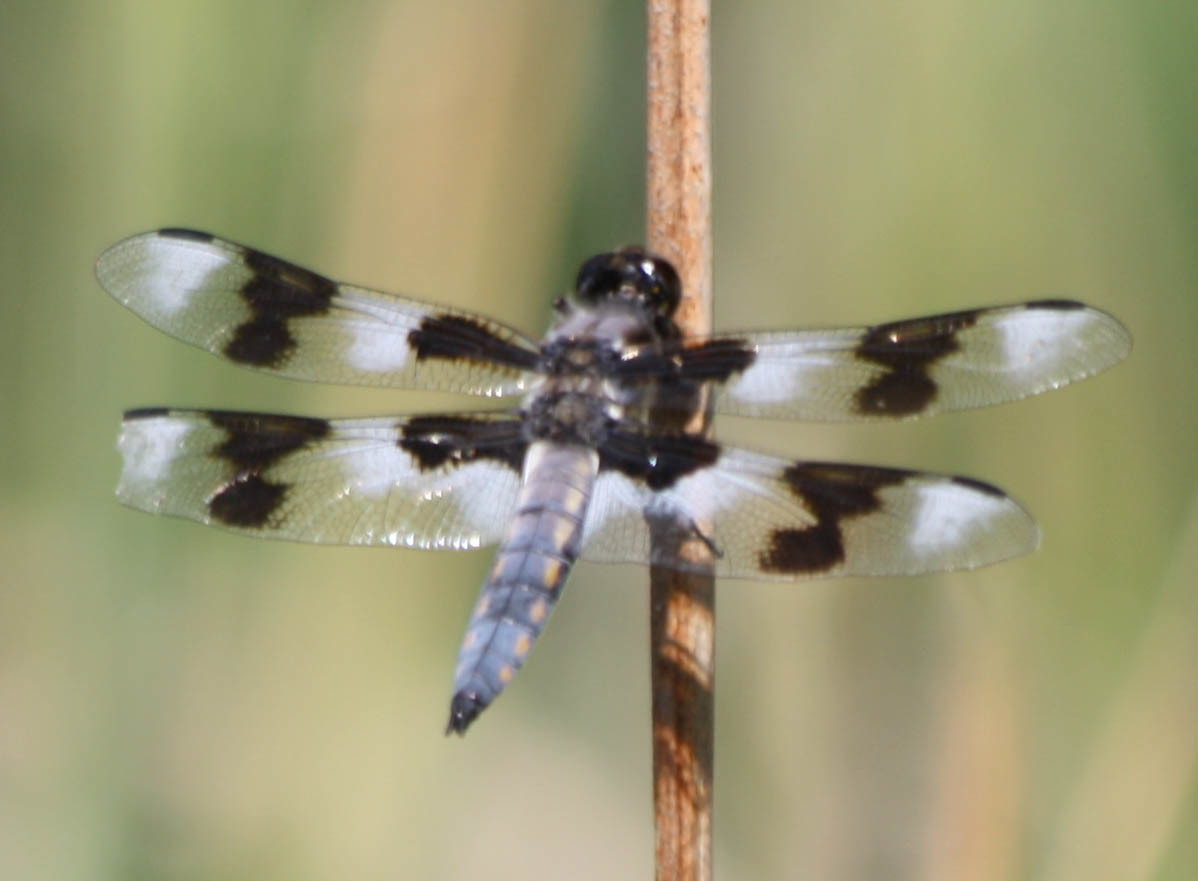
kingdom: Animalia
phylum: Arthropoda
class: Insecta
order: Odonata
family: Libellulidae
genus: Libellula
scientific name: Libellula forensis
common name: Eight-spotted skimmer
